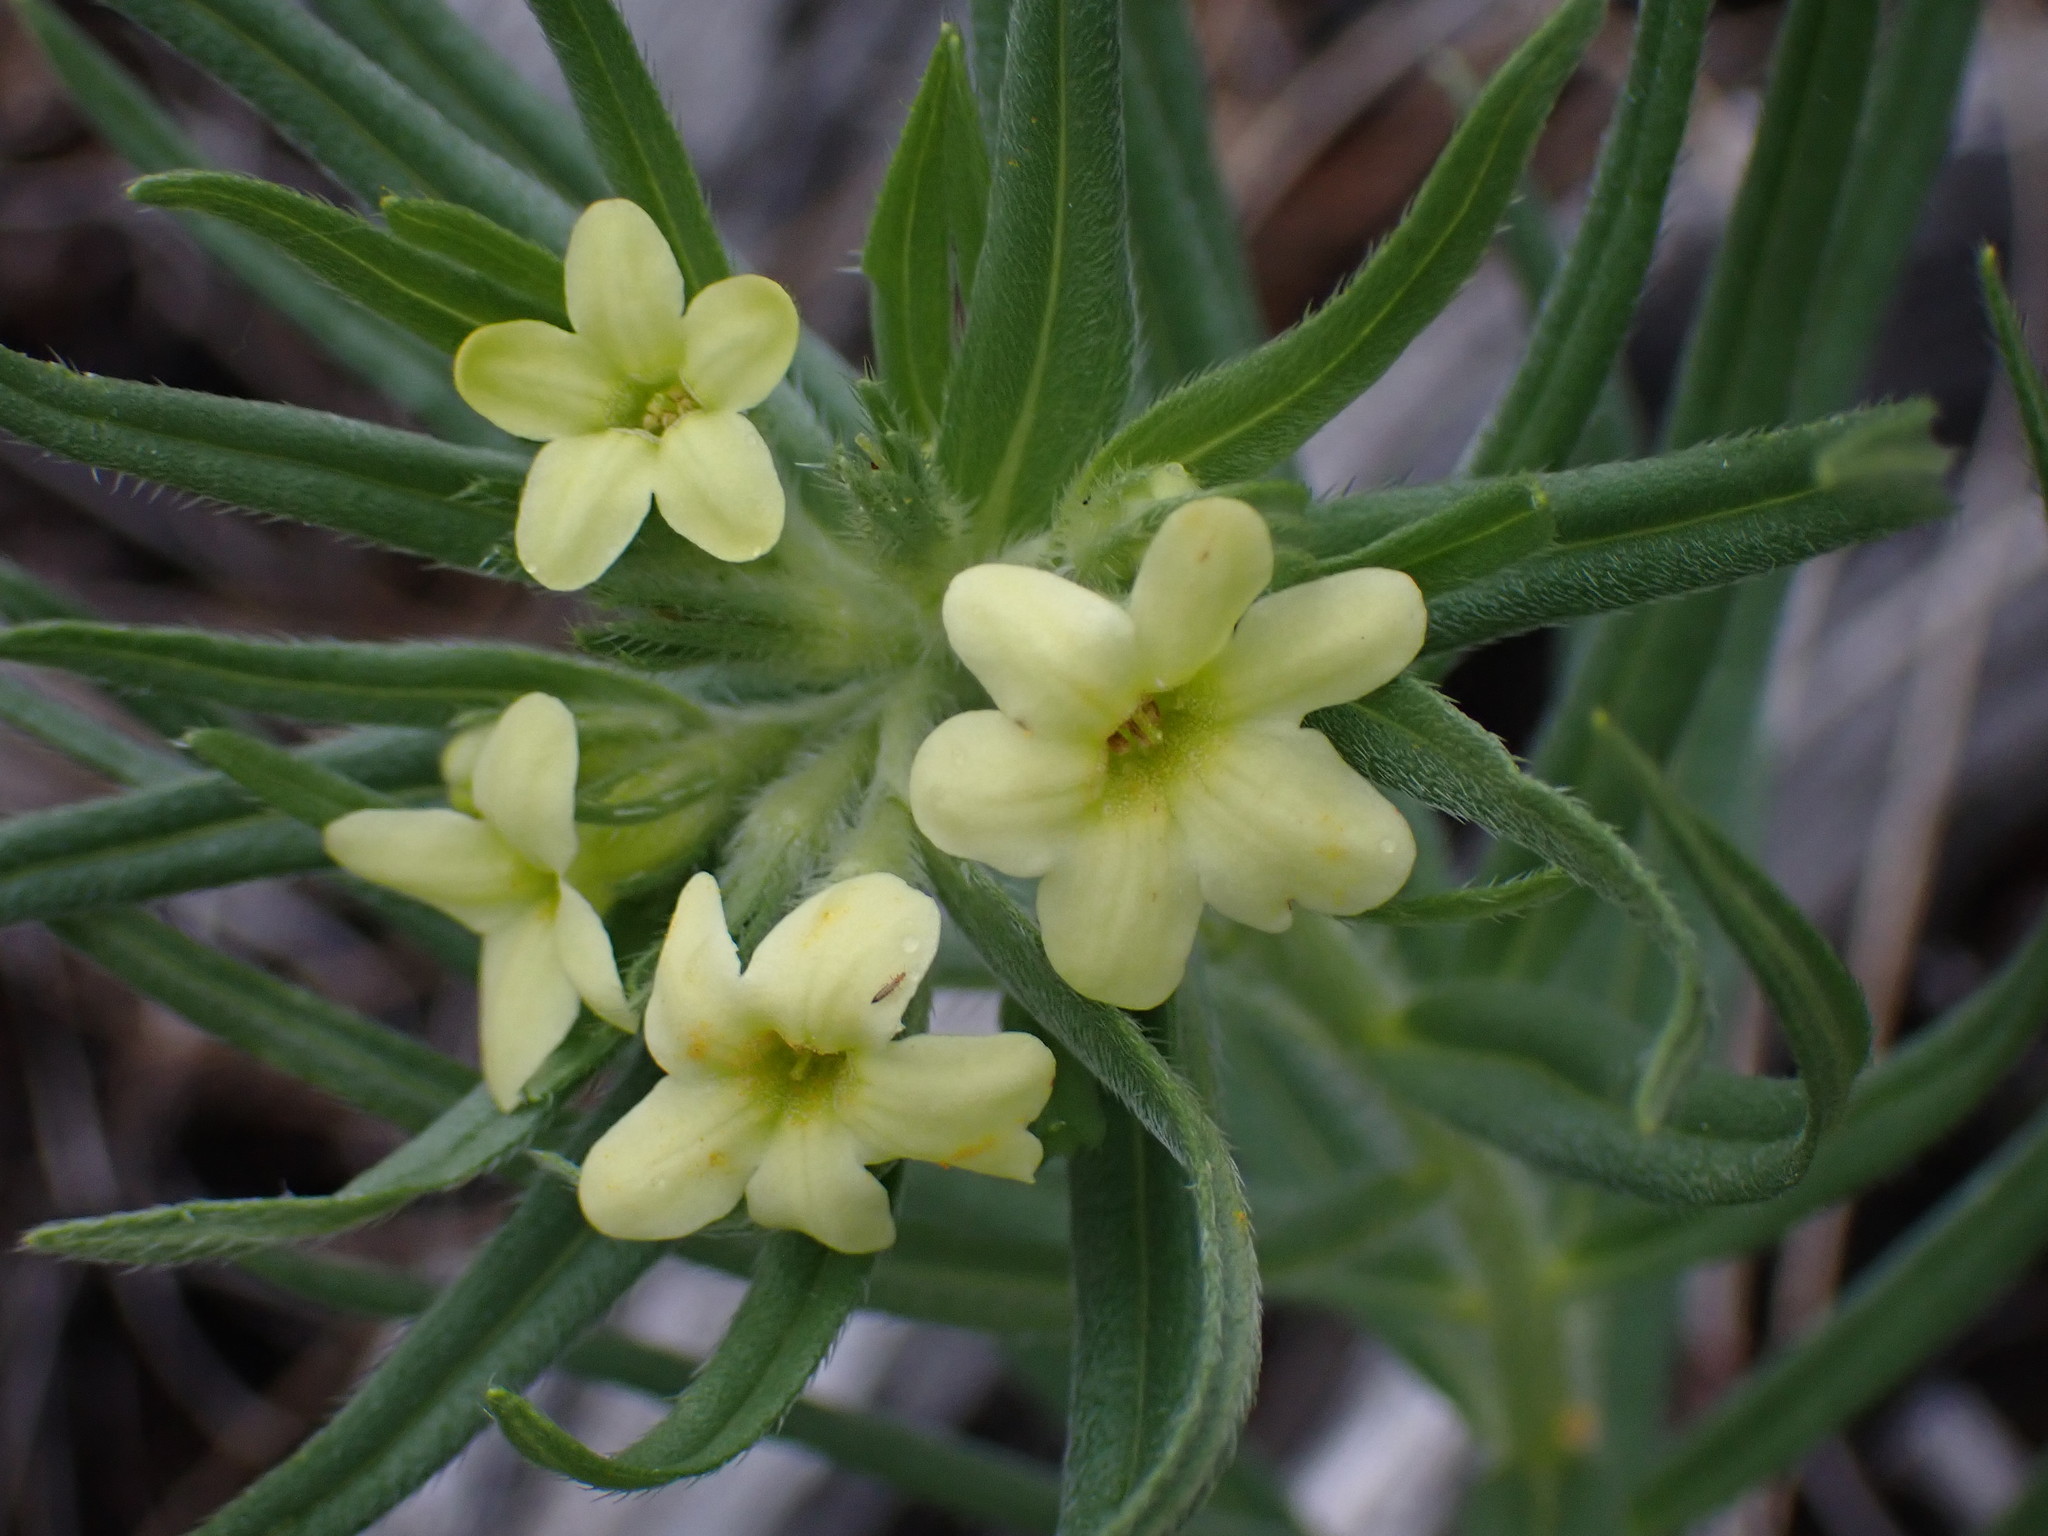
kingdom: Plantae
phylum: Tracheophyta
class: Magnoliopsida
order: Boraginales
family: Boraginaceae
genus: Lithospermum
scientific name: Lithospermum ruderale
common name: Western gromwell
